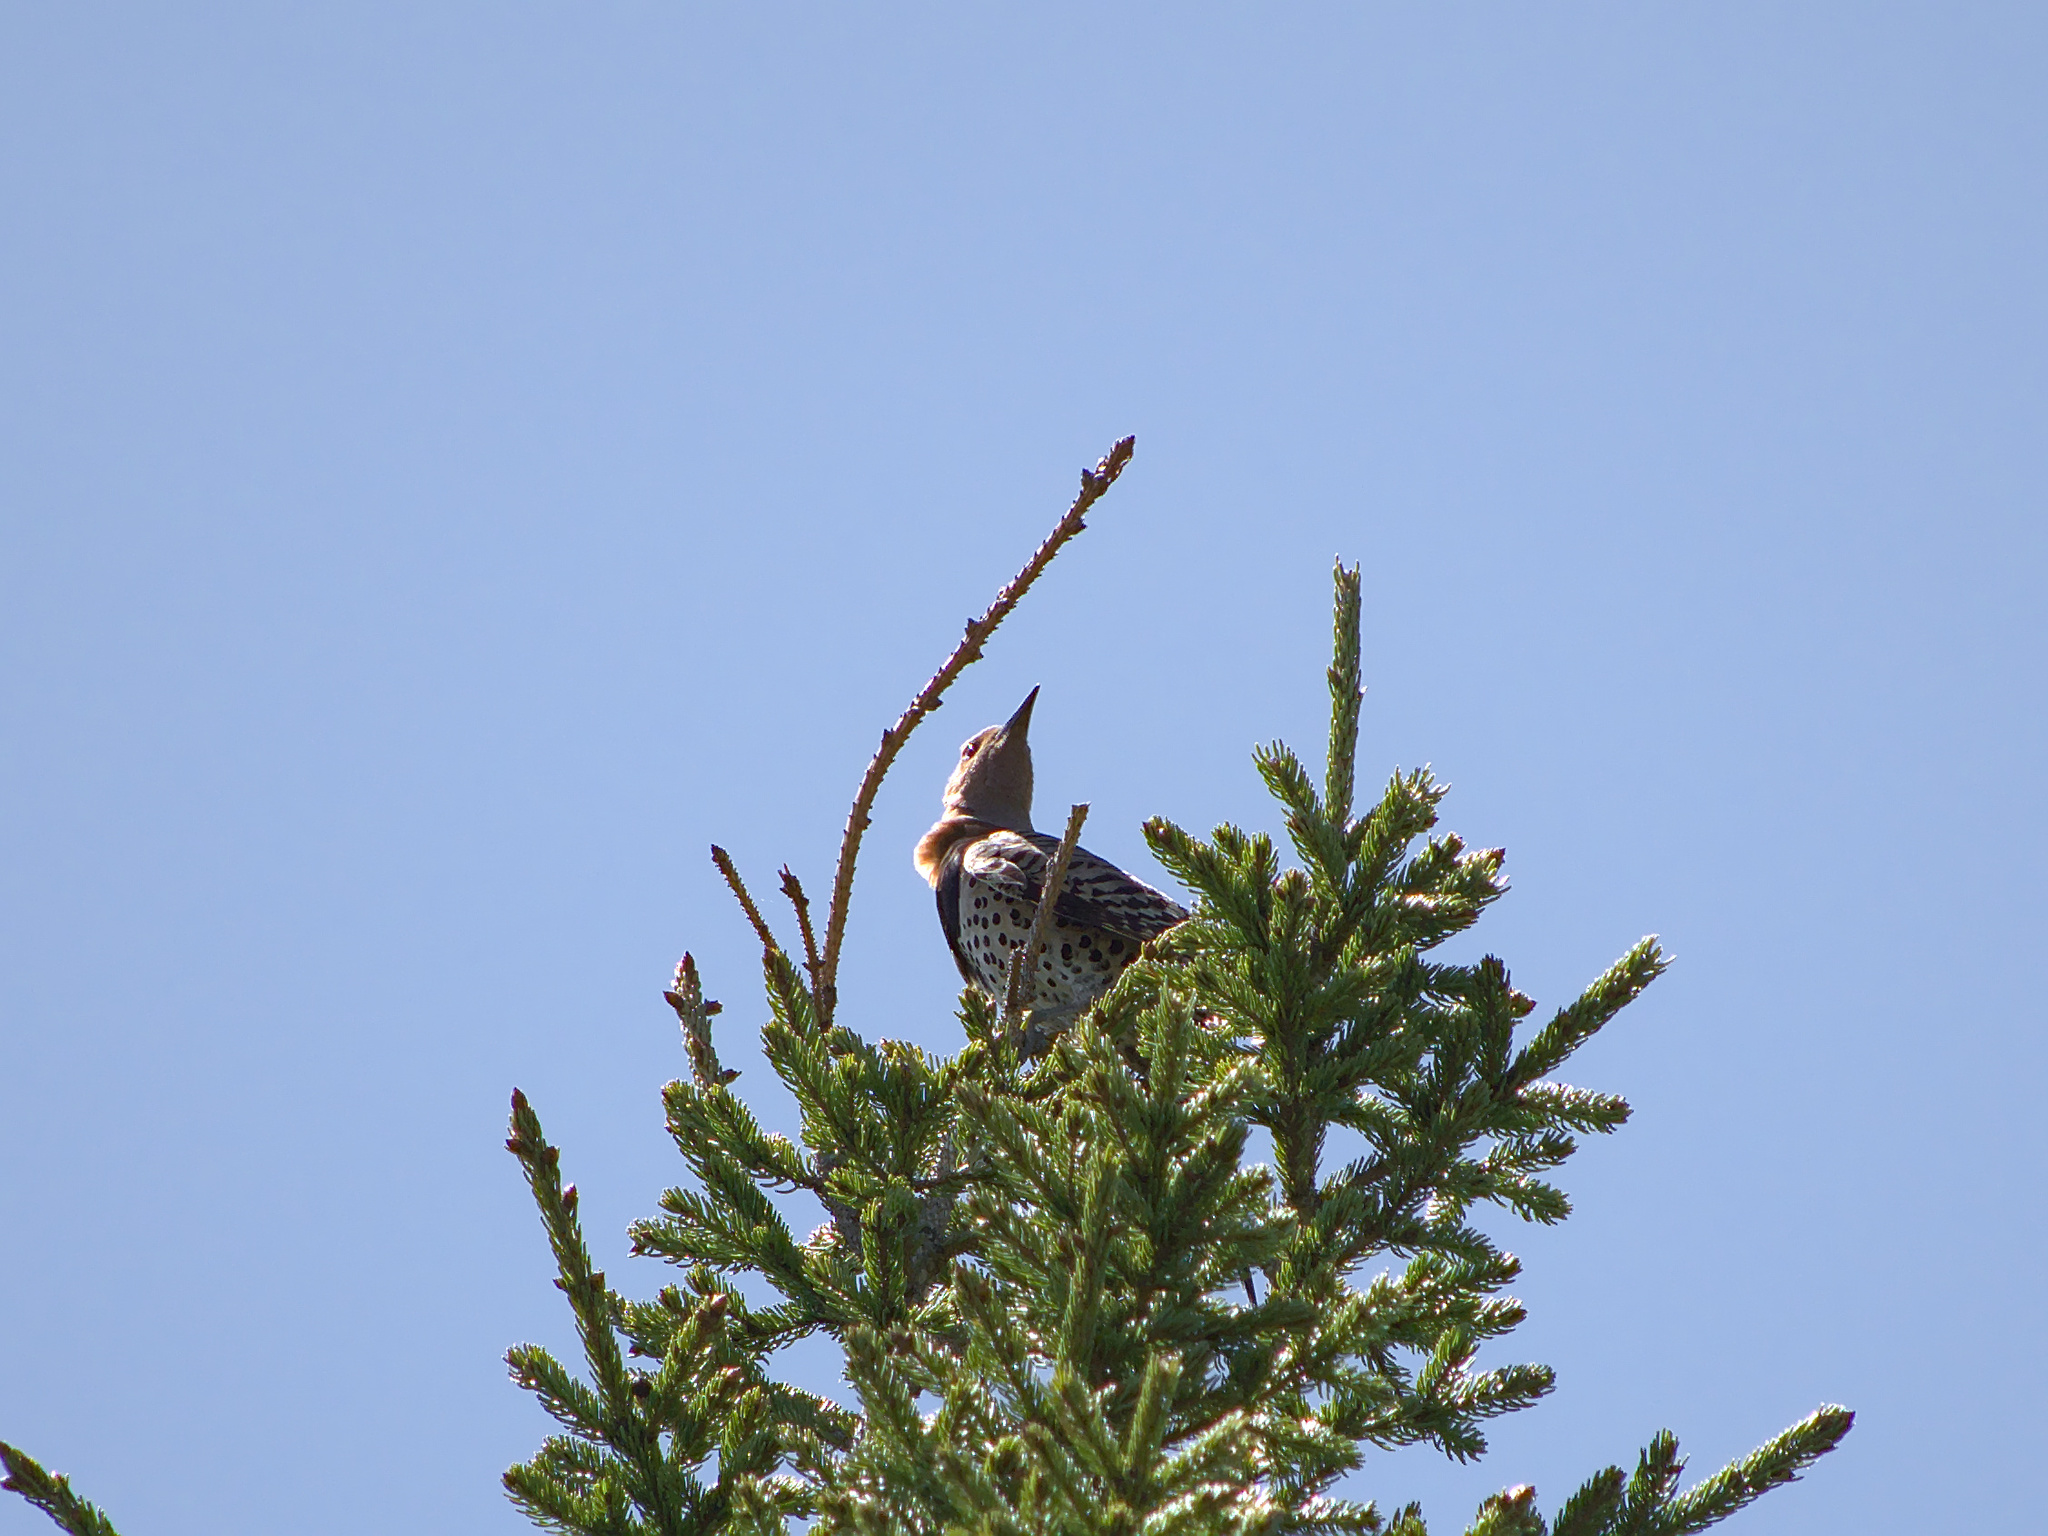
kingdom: Animalia
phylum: Chordata
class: Aves
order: Piciformes
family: Picidae
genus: Colaptes
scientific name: Colaptes auratus
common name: Northern flicker
